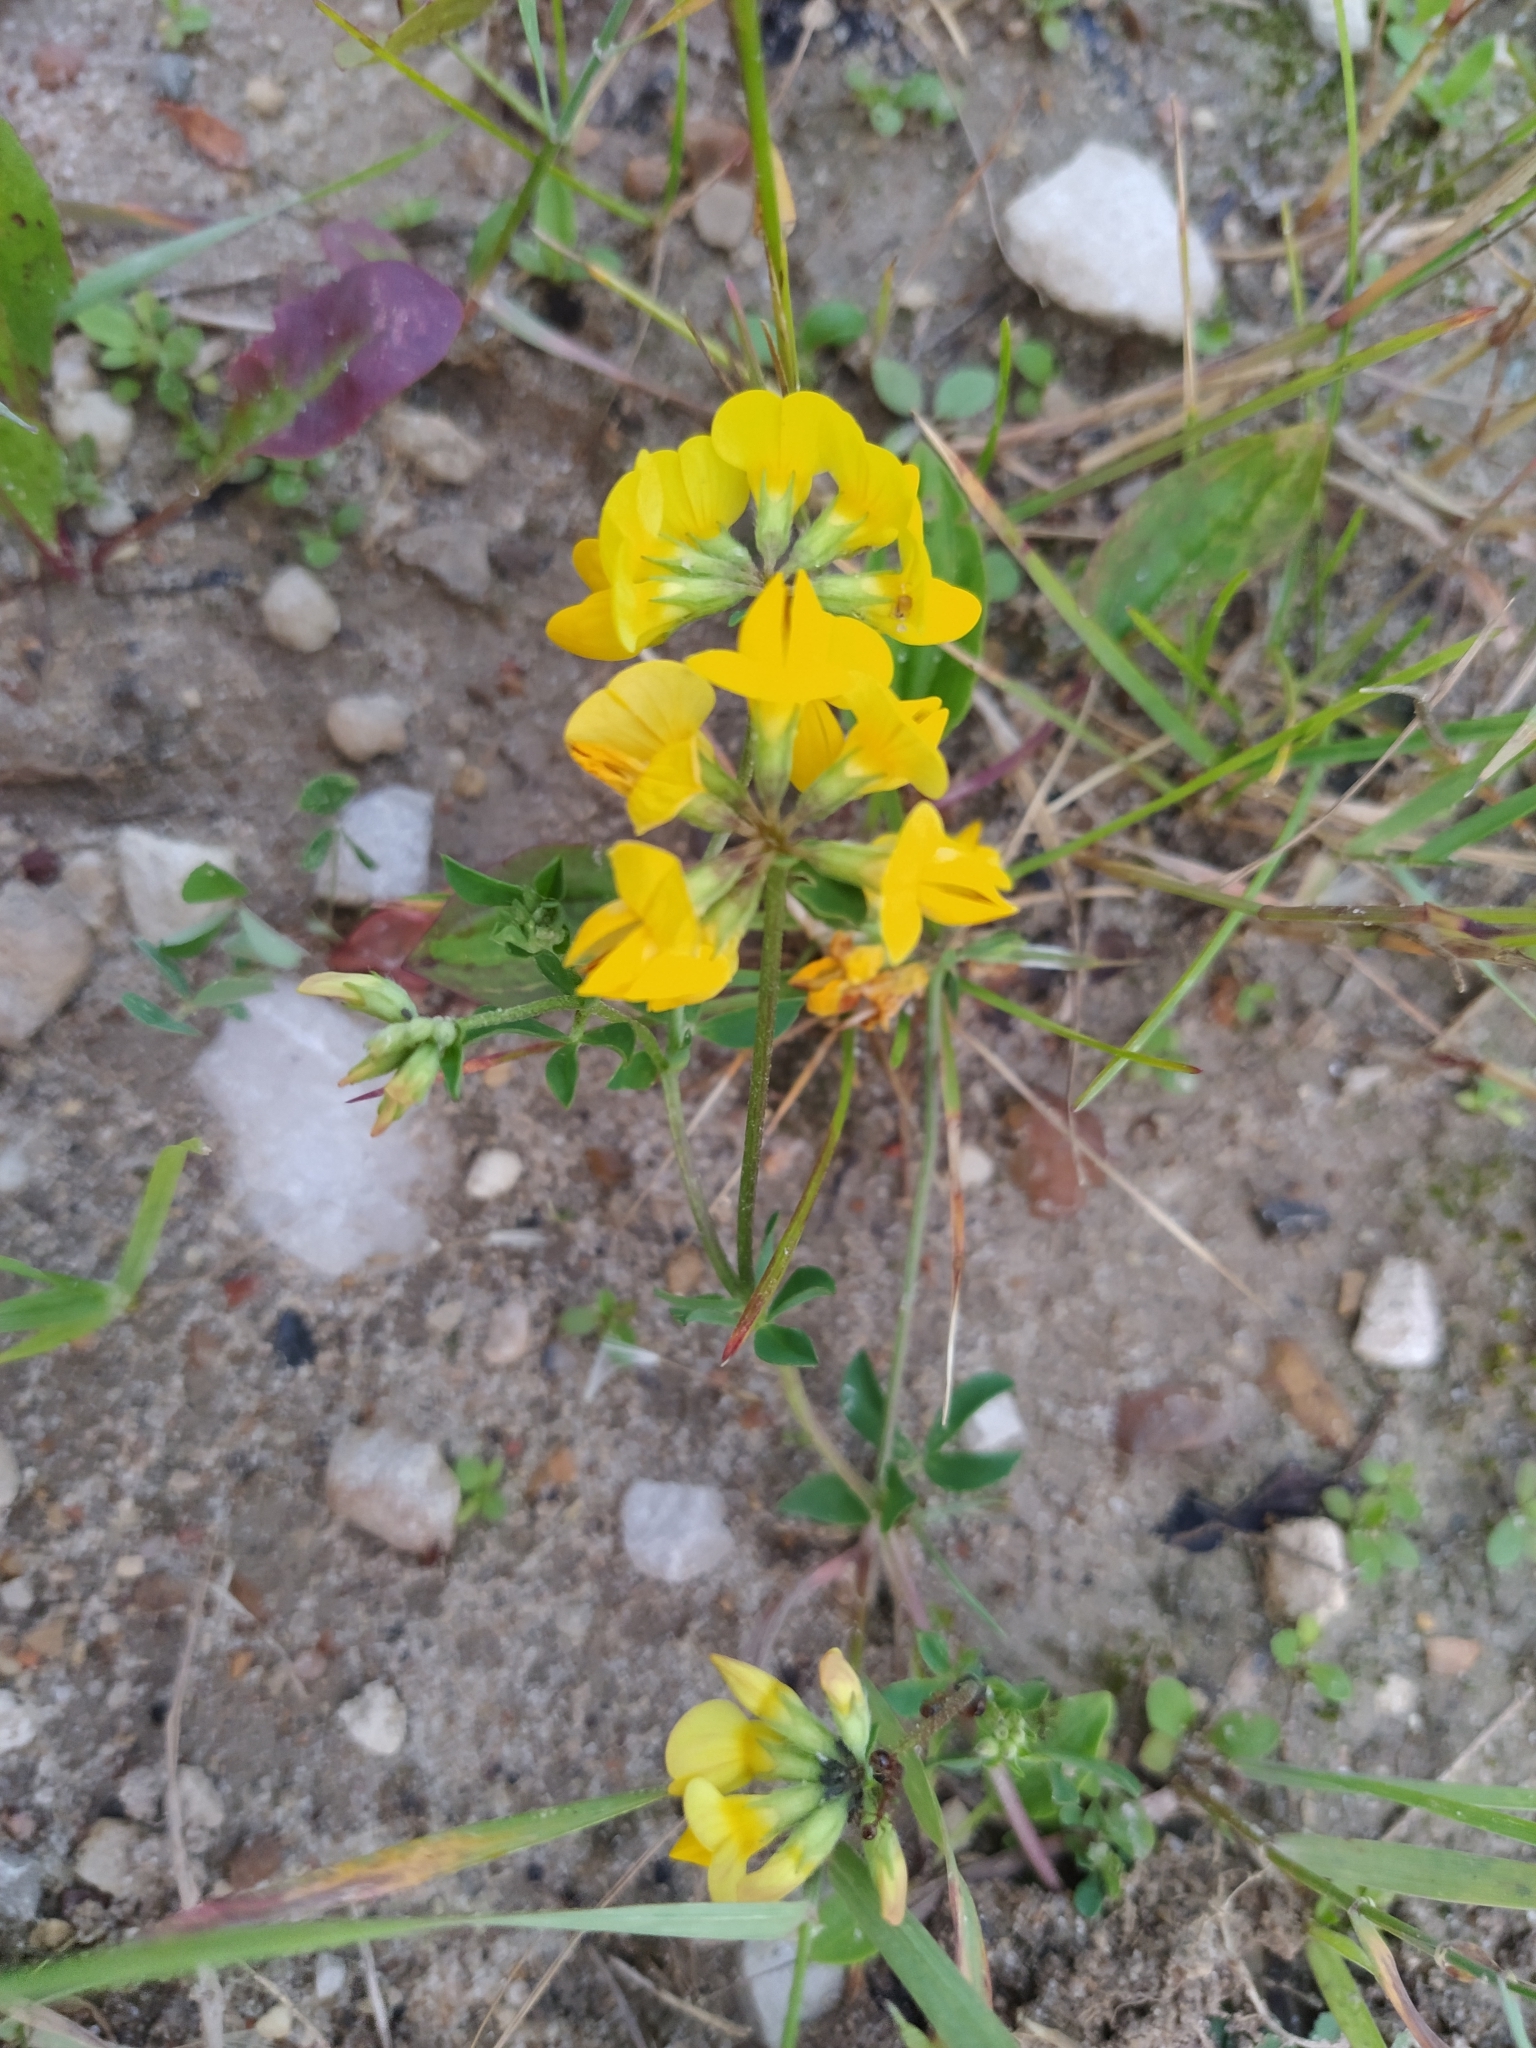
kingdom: Plantae
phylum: Tracheophyta
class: Magnoliopsida
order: Fabales
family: Fabaceae
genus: Lotus
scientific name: Lotus corniculatus
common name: Common bird's-foot-trefoil
